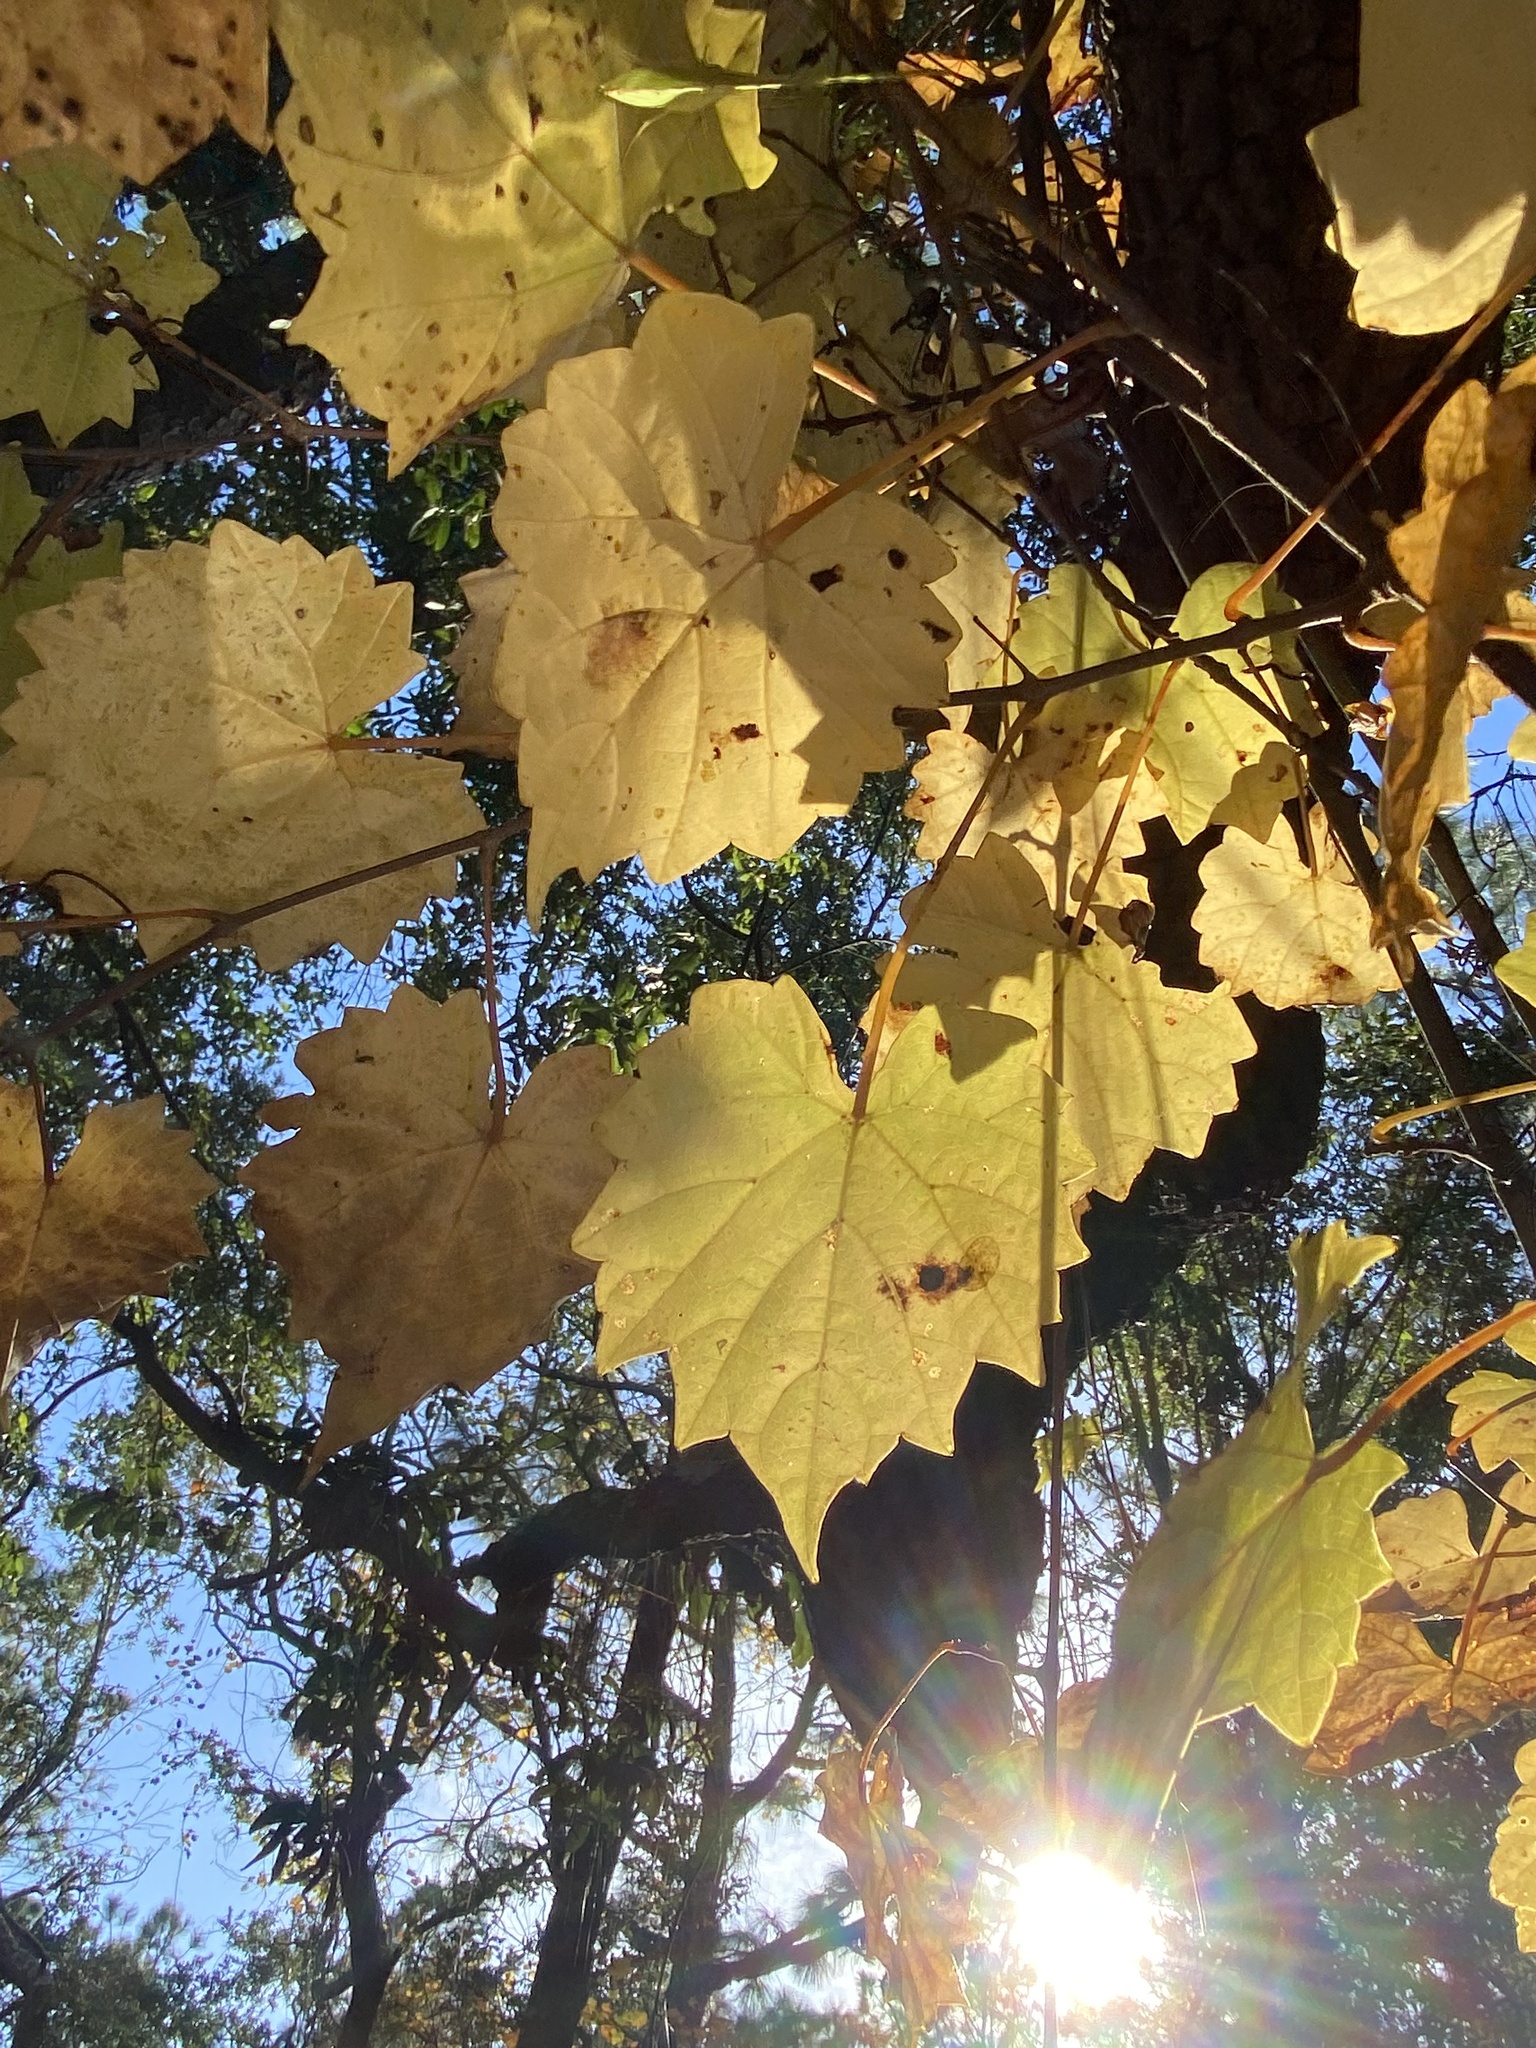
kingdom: Plantae
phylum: Tracheophyta
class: Magnoliopsida
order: Vitales
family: Vitaceae
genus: Vitis
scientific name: Vitis rotundifolia
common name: Muscadine grape
